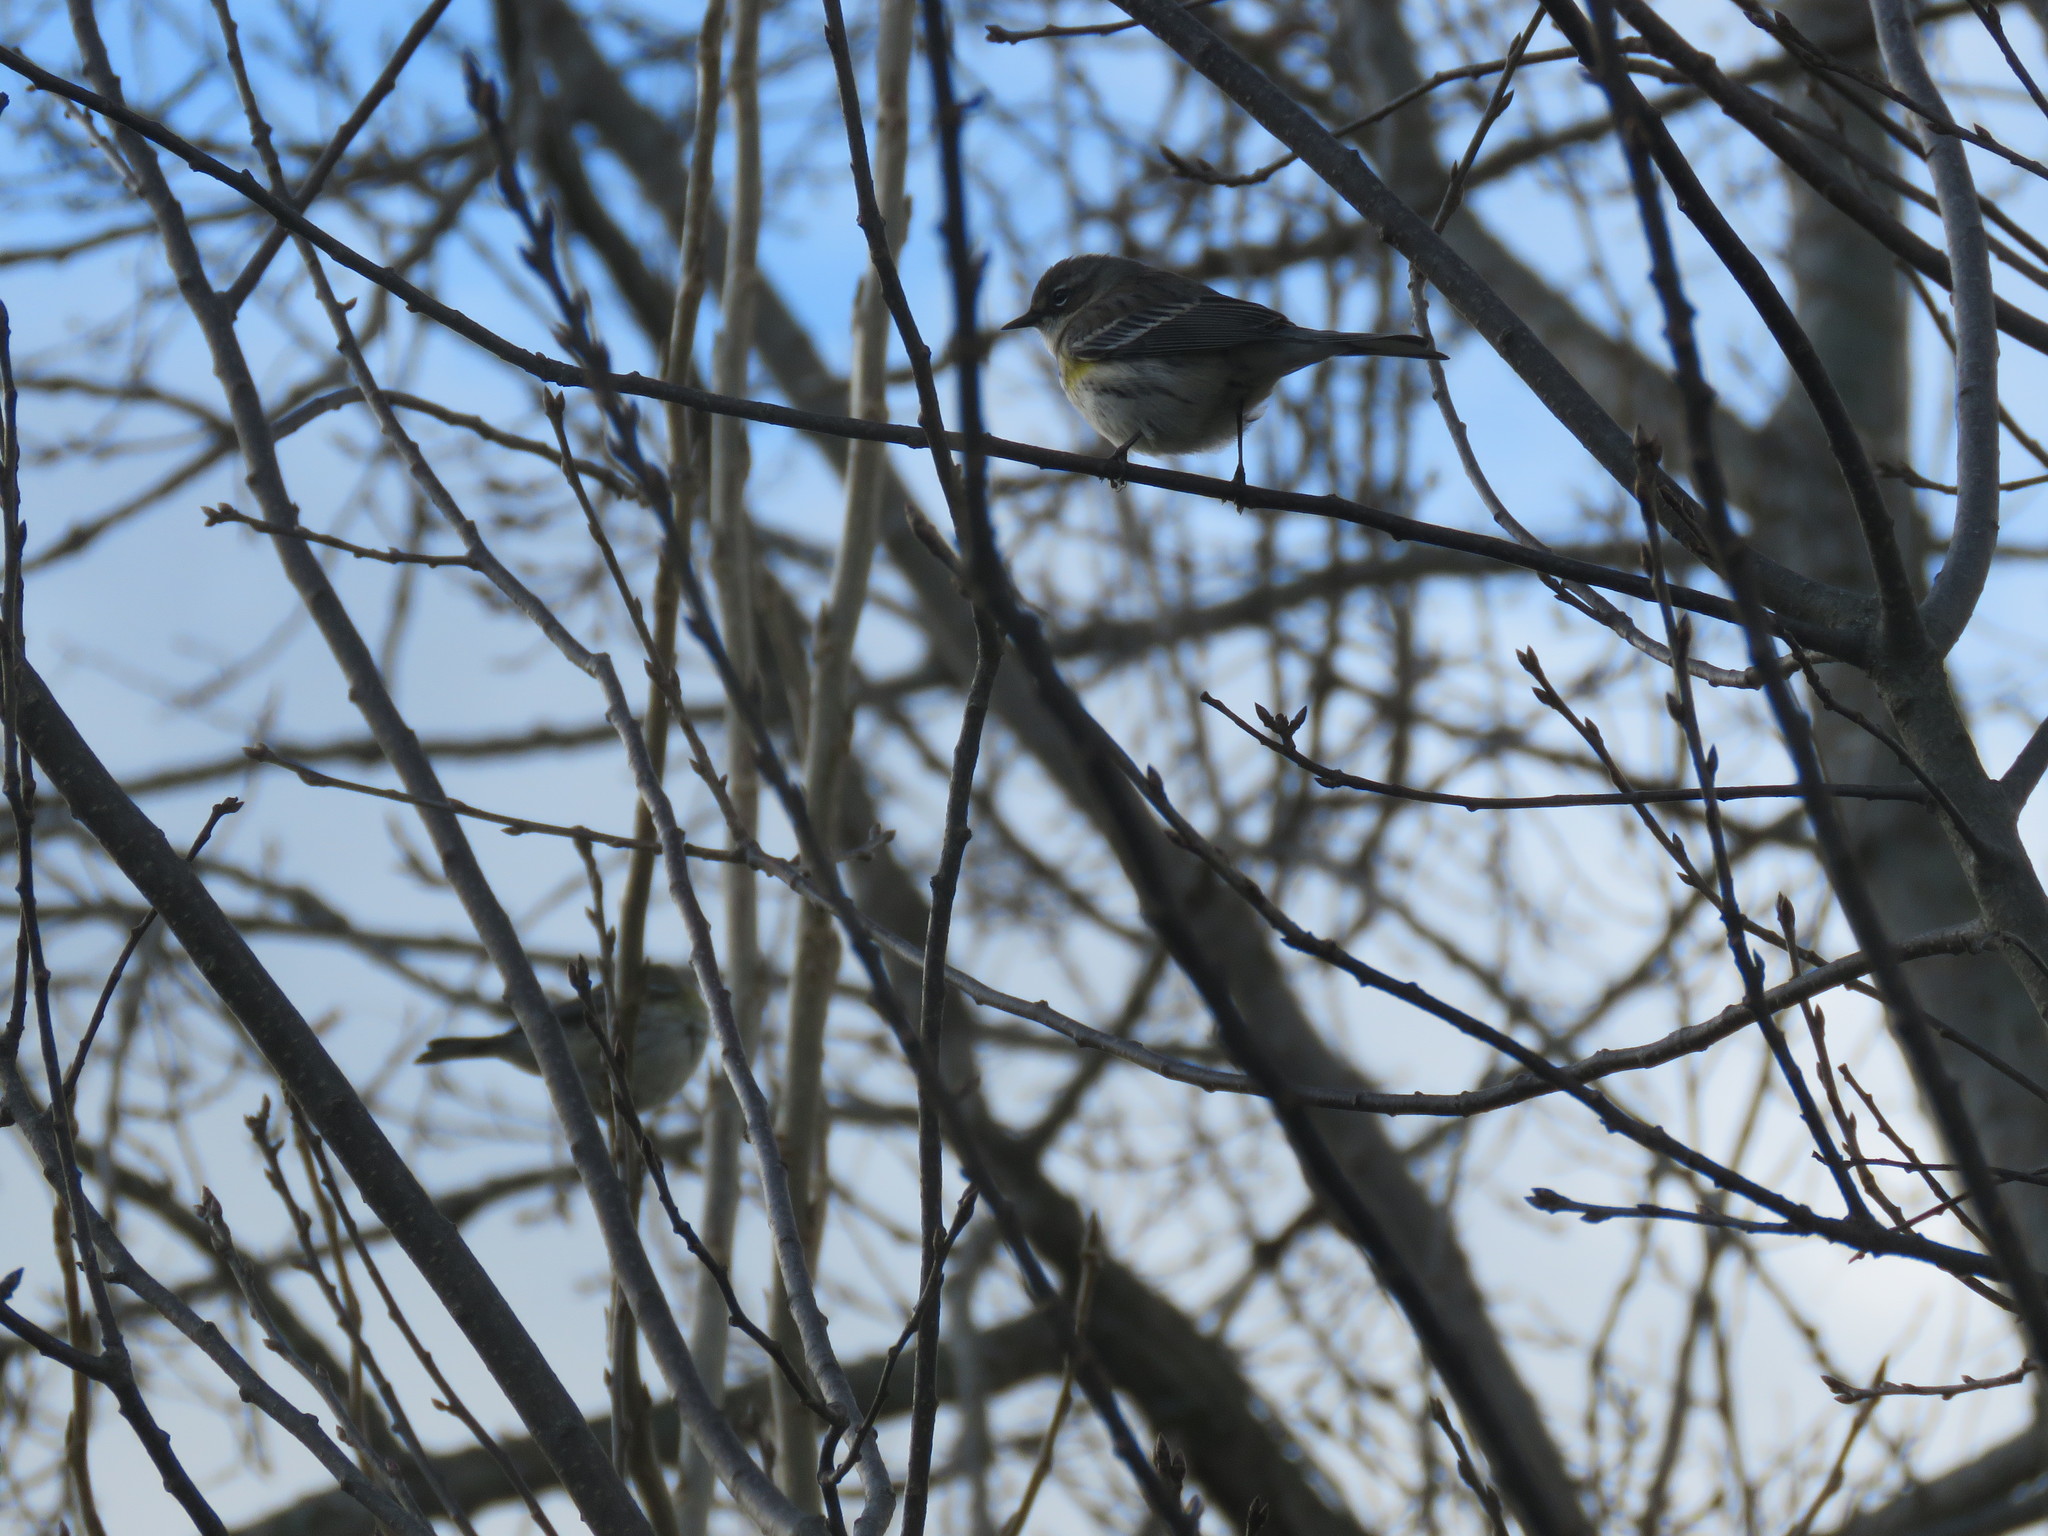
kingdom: Animalia
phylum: Chordata
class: Aves
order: Passeriformes
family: Parulidae
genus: Setophaga
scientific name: Setophaga coronata
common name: Myrtle warbler
